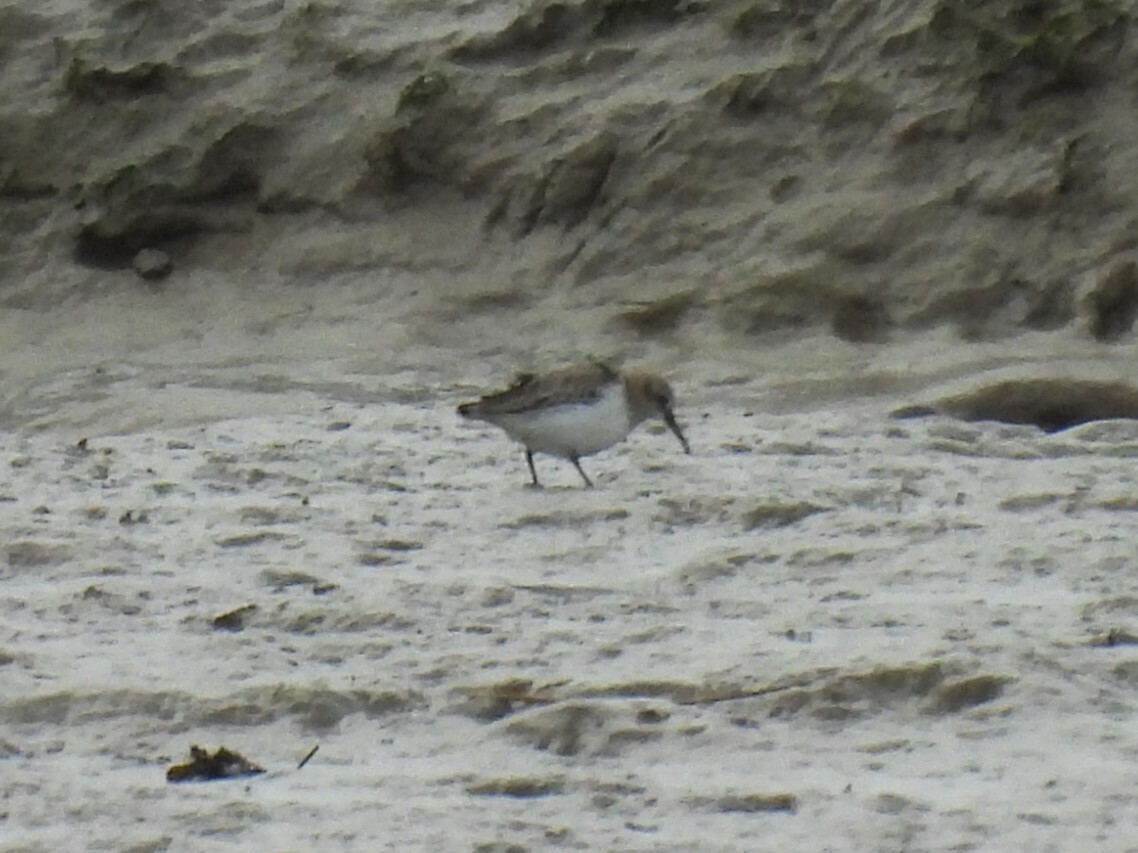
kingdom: Animalia
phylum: Chordata
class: Aves
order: Charadriiformes
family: Scolopacidae
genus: Calidris
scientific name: Calidris alpina
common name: Dunlin
